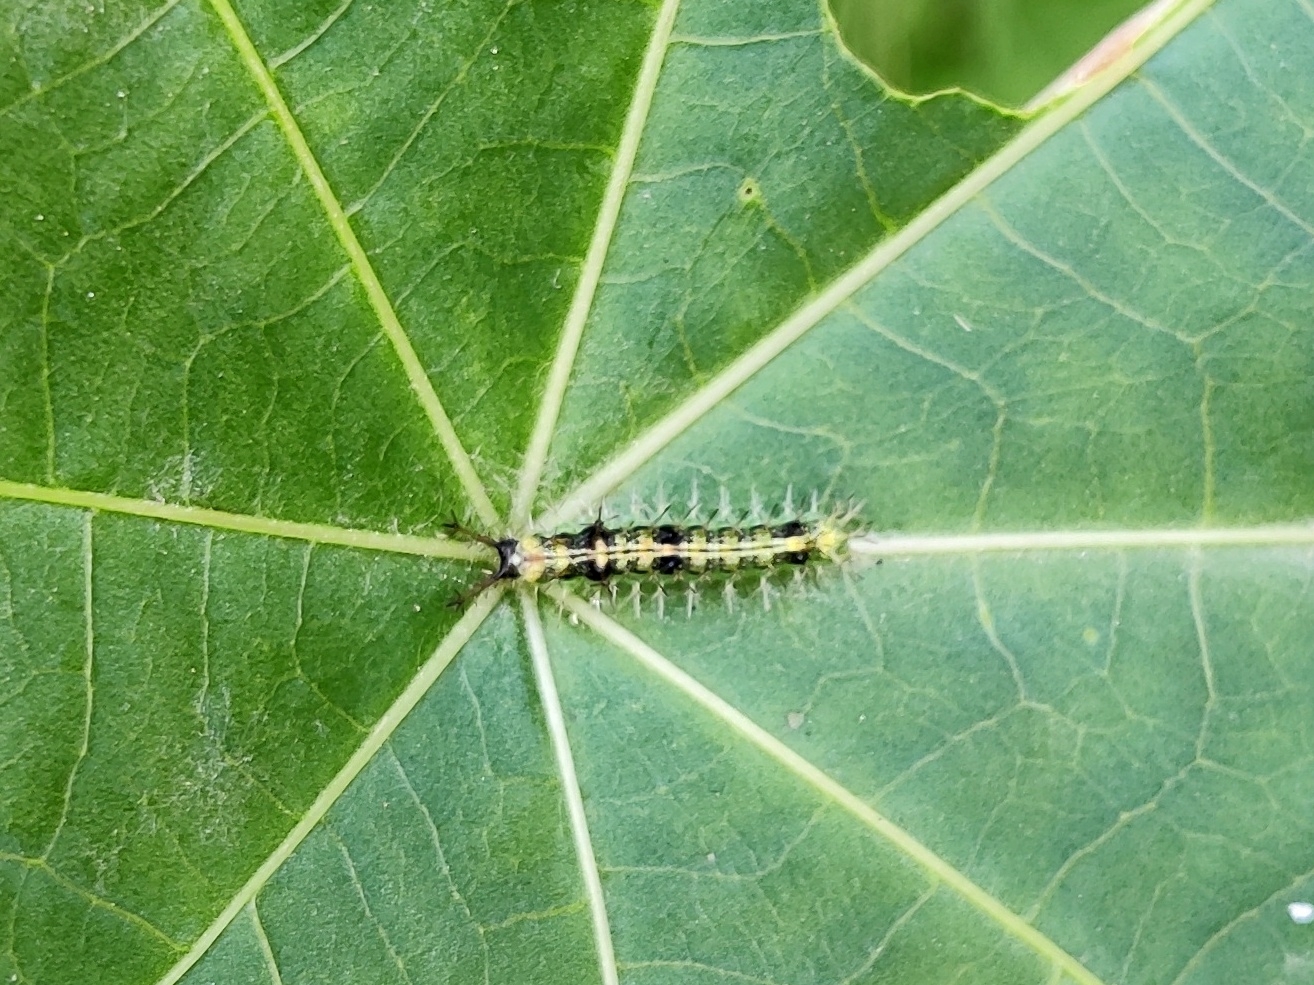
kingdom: Animalia
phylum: Arthropoda
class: Insecta
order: Lepidoptera
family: Nymphalidae
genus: Ariadne
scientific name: Ariadne merione
